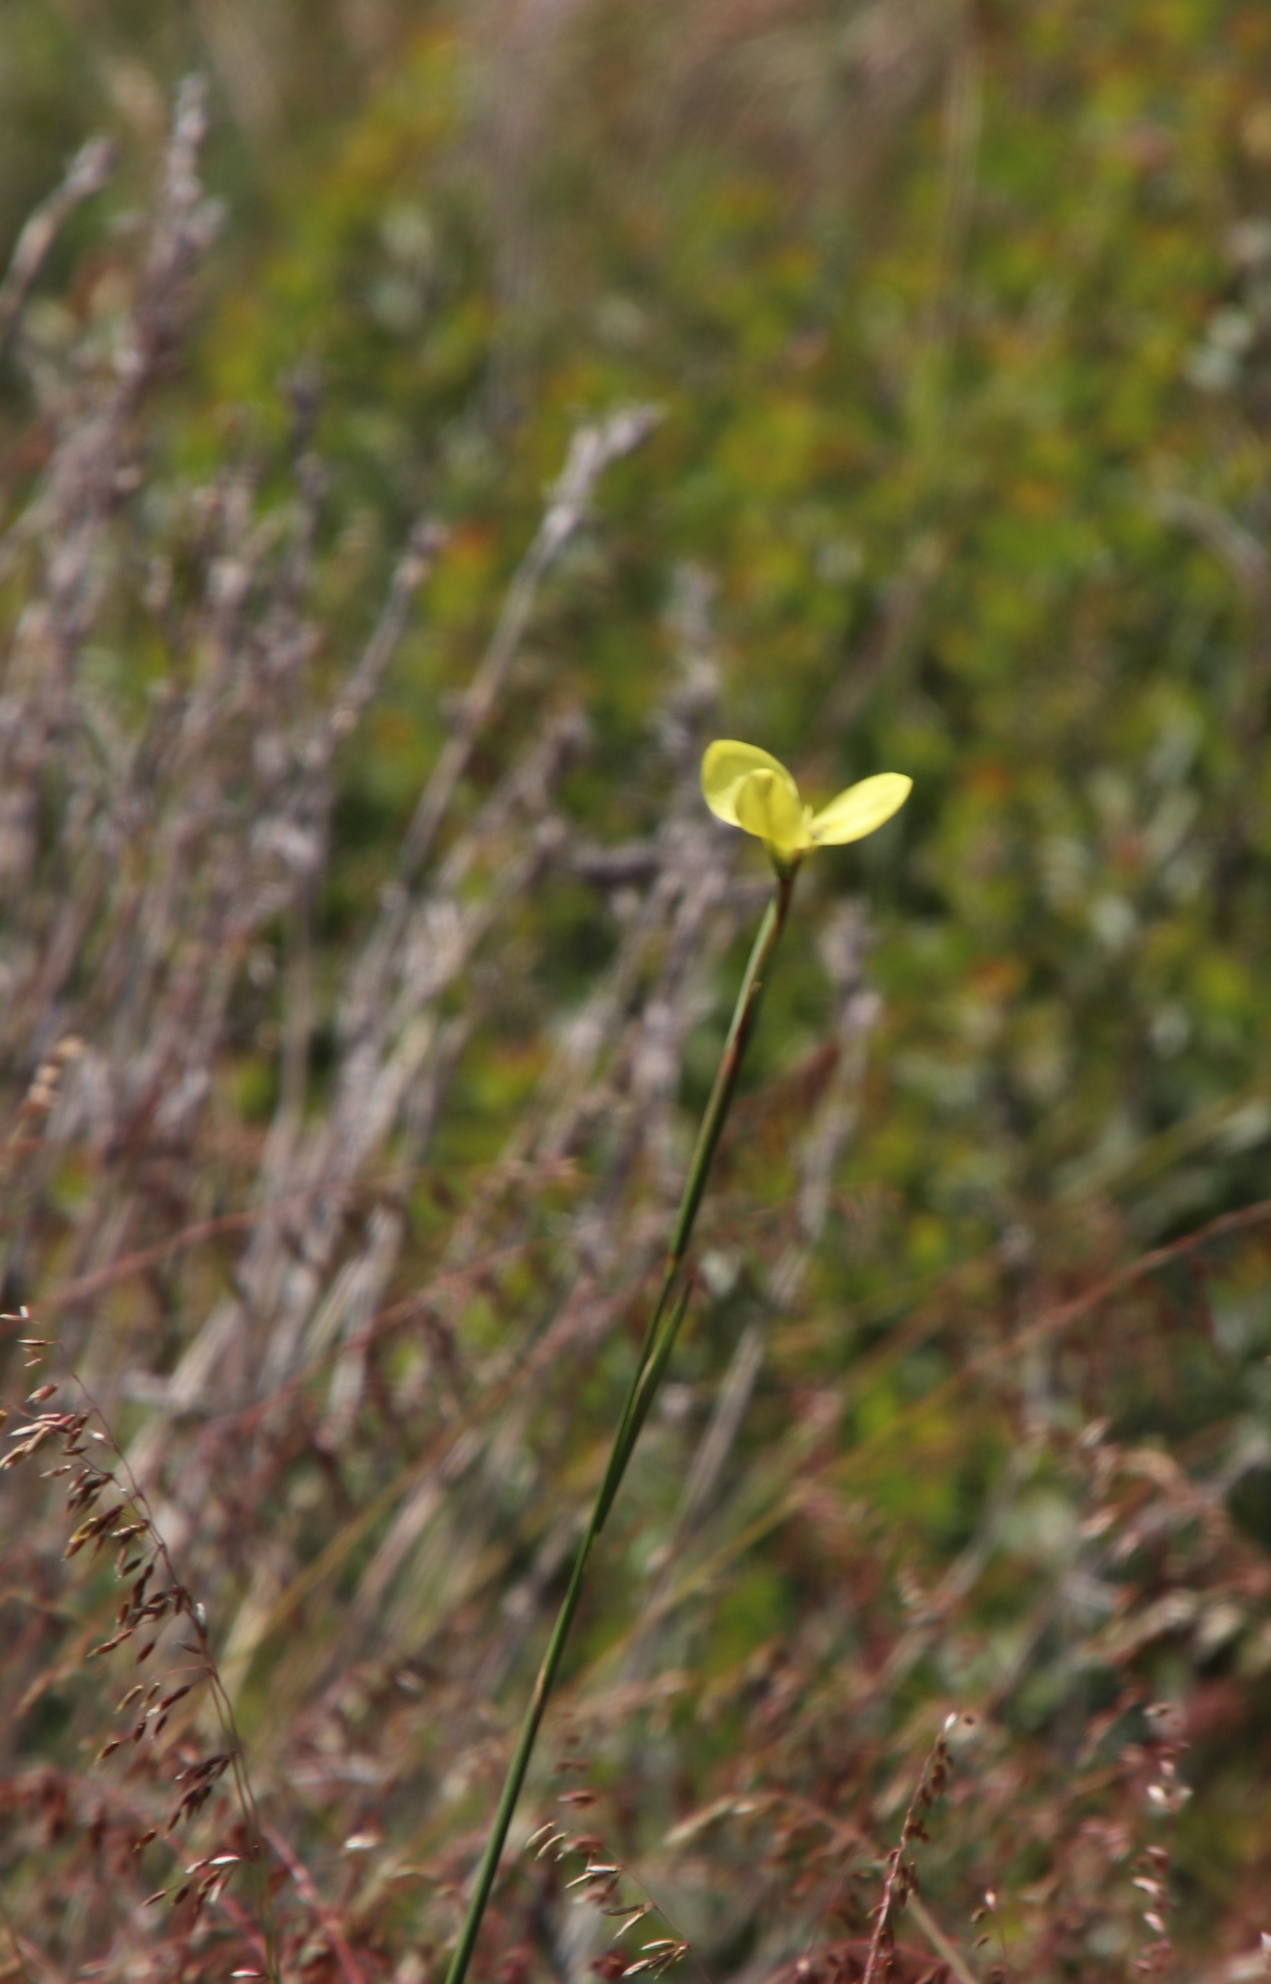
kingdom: Plantae
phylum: Tracheophyta
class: Liliopsida
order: Asparagales
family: Iridaceae
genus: Moraea
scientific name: Moraea bellendenii
